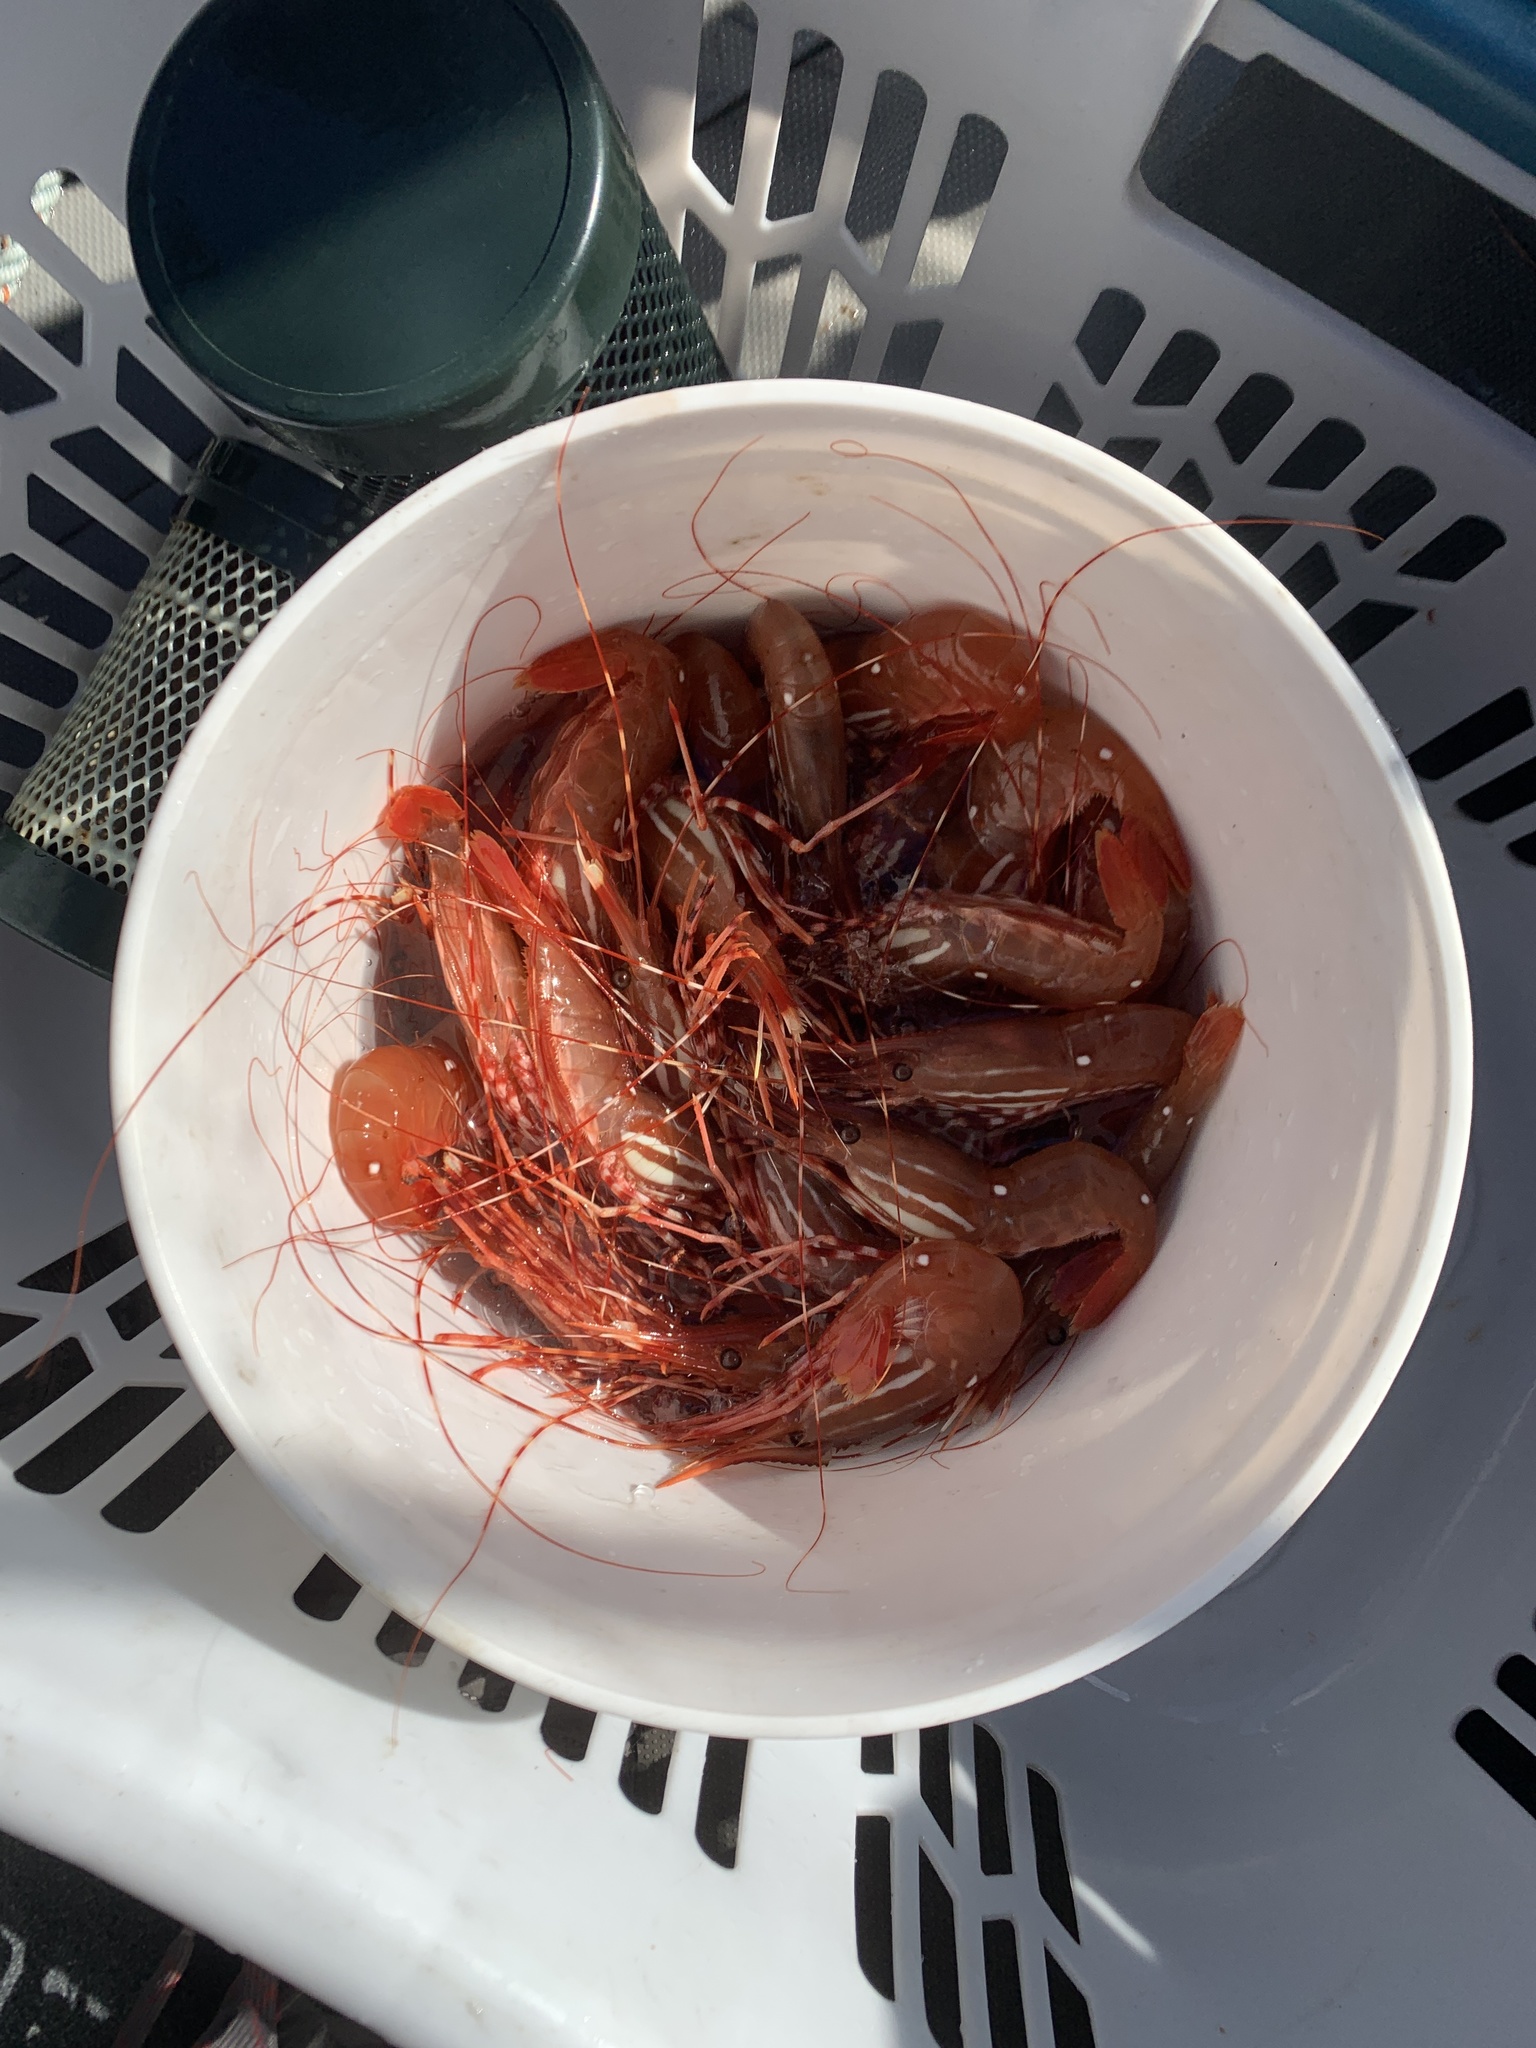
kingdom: Animalia
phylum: Arthropoda
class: Malacostraca
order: Decapoda
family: Pandalidae
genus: Pandalus
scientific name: Pandalus platyceros
